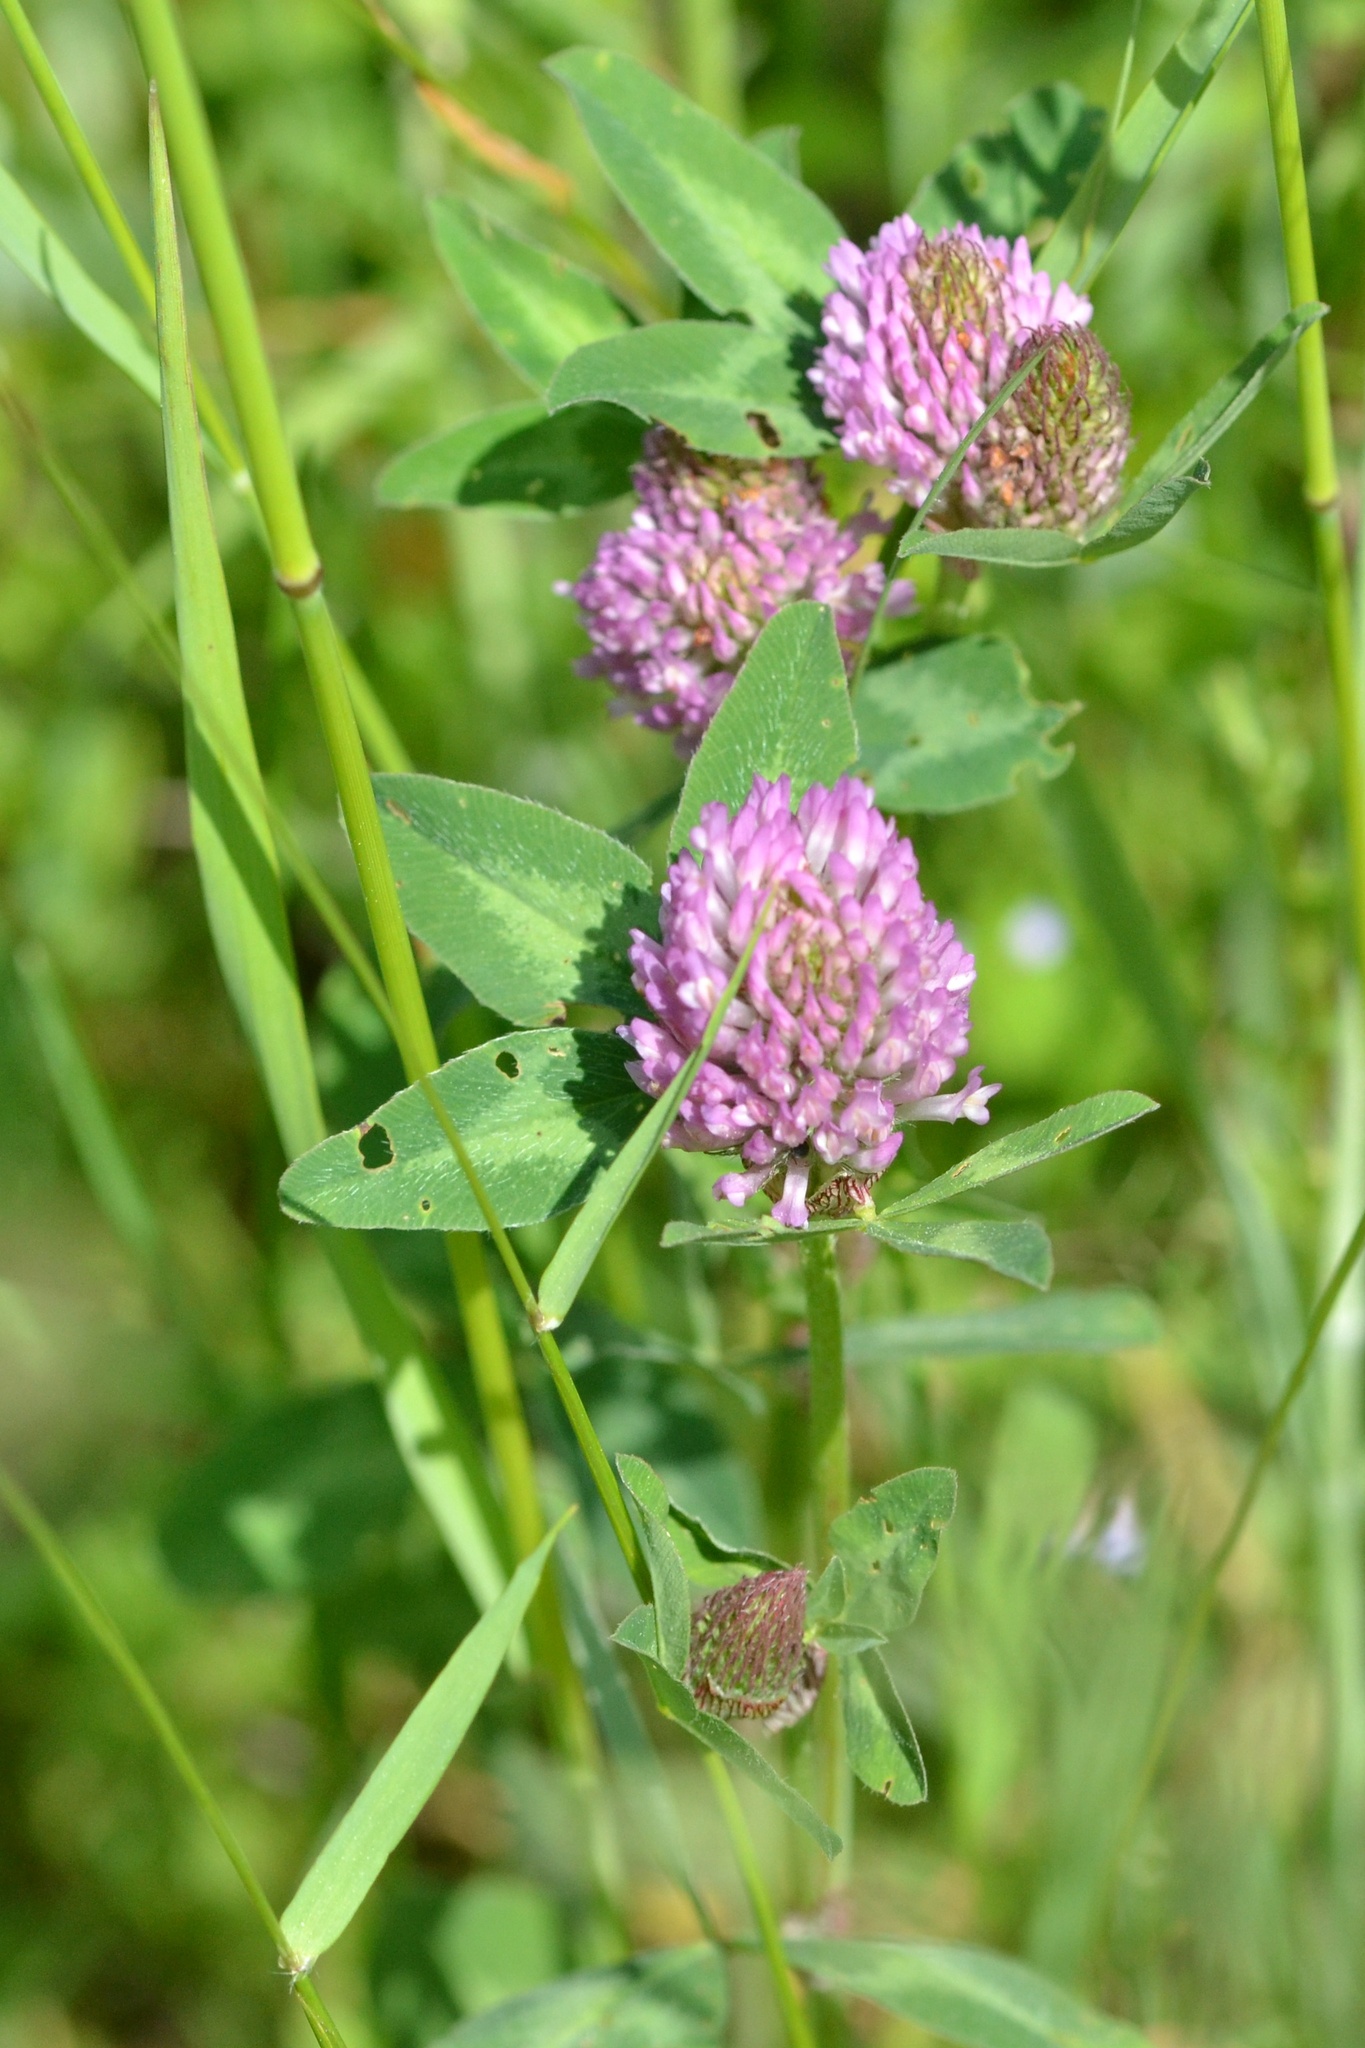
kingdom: Plantae
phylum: Tracheophyta
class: Magnoliopsida
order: Fabales
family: Fabaceae
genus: Trifolium
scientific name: Trifolium pratense
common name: Red clover
